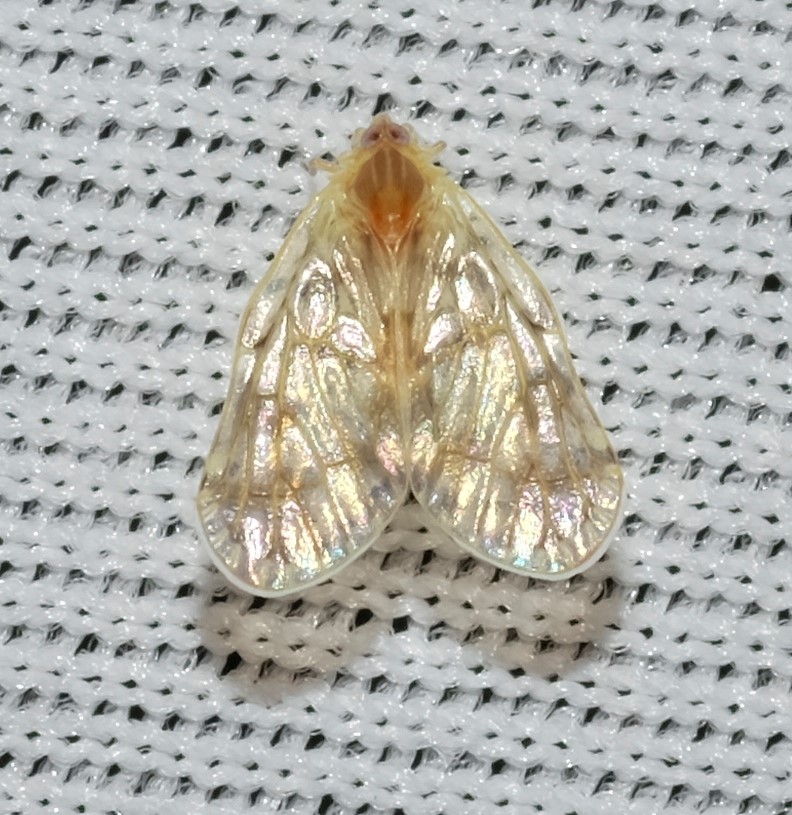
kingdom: Animalia
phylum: Arthropoda
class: Insecta
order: Hemiptera
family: Derbidae
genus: Saccharodite
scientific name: Saccharodite chrysonoe
